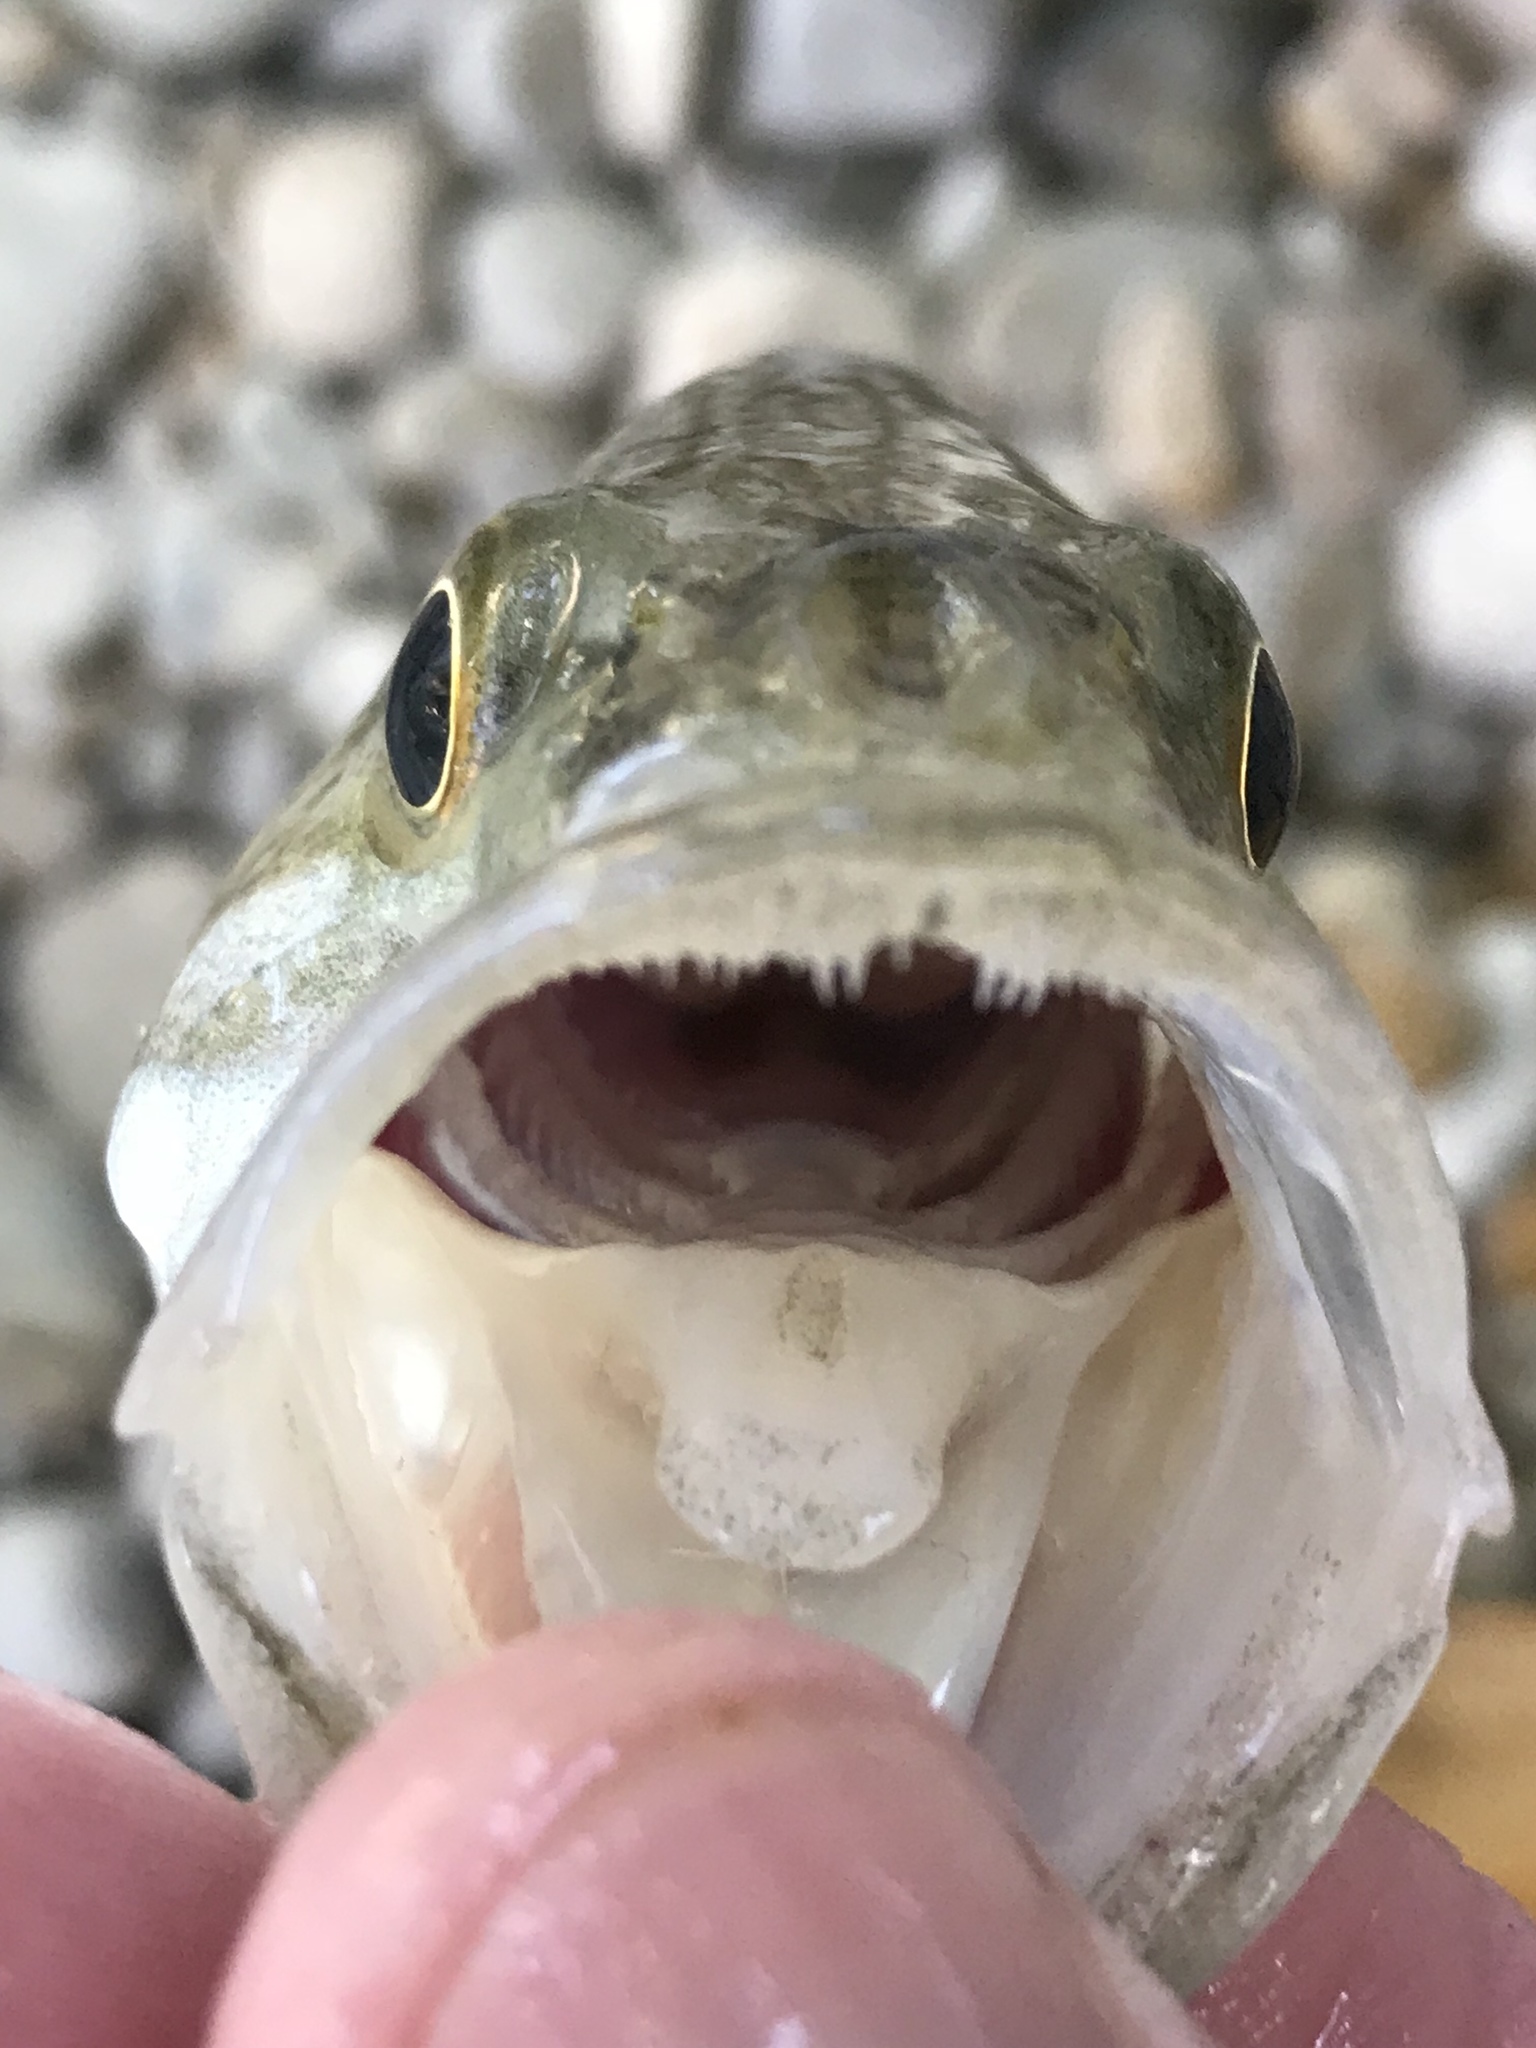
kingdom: Animalia
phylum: Chordata
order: Perciformes
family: Centrarchidae
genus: Micropterus
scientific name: Micropterus treculii
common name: Guadalupe bass
